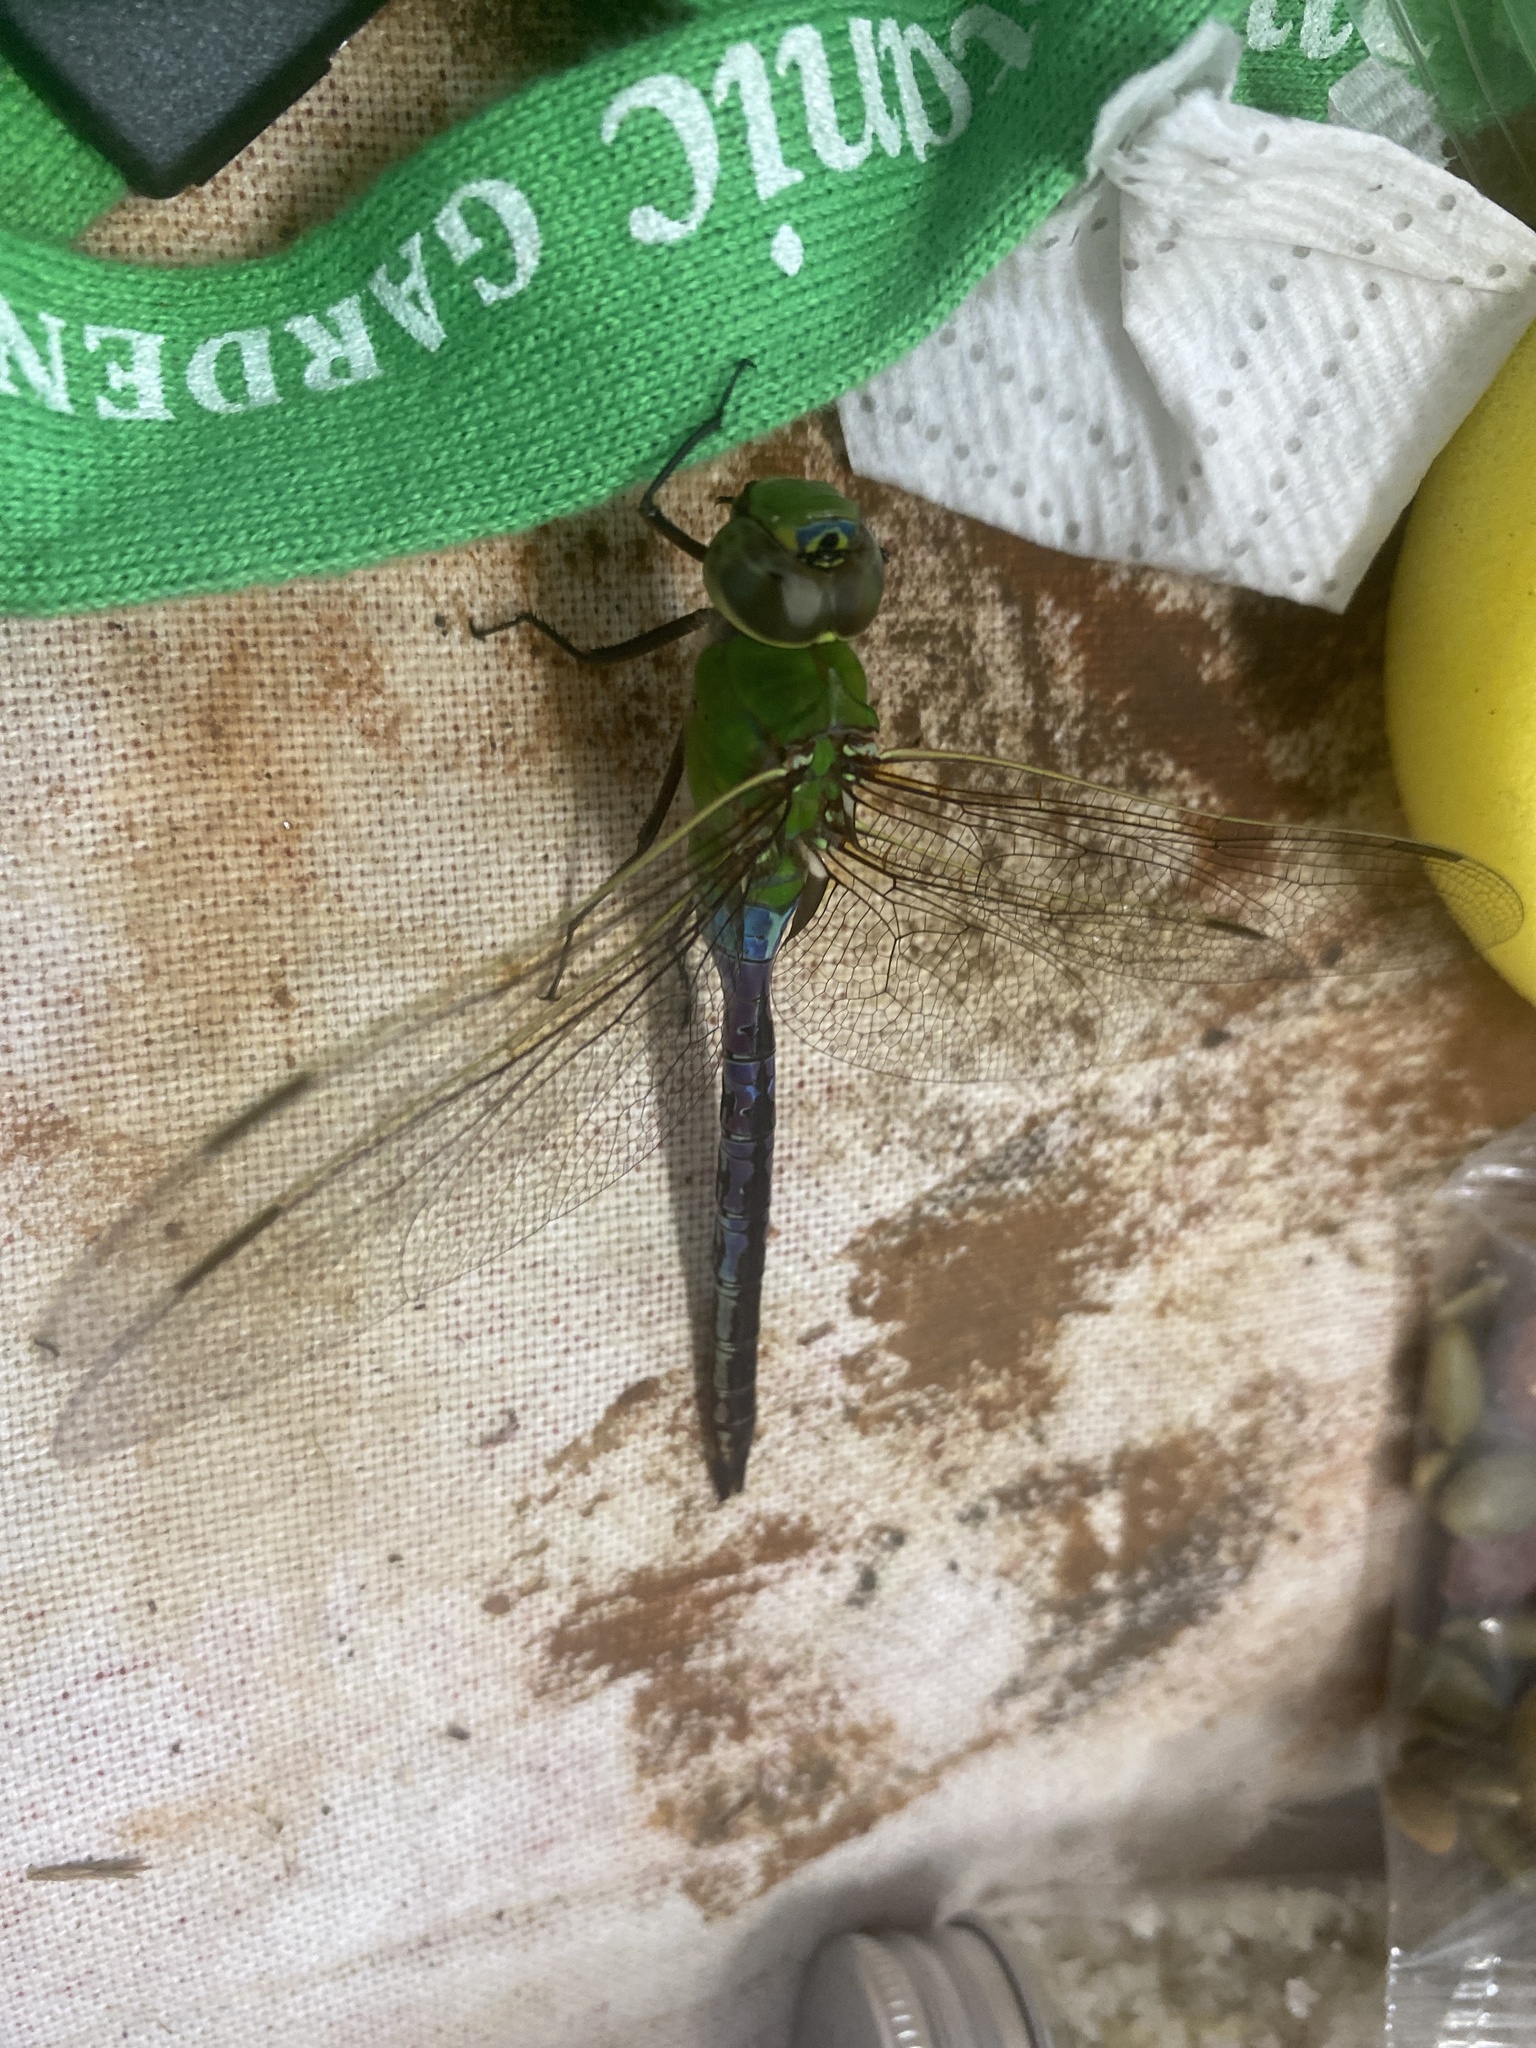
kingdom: Animalia
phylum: Arthropoda
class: Insecta
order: Odonata
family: Aeshnidae
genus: Anax
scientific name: Anax junius
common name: Common green darner
